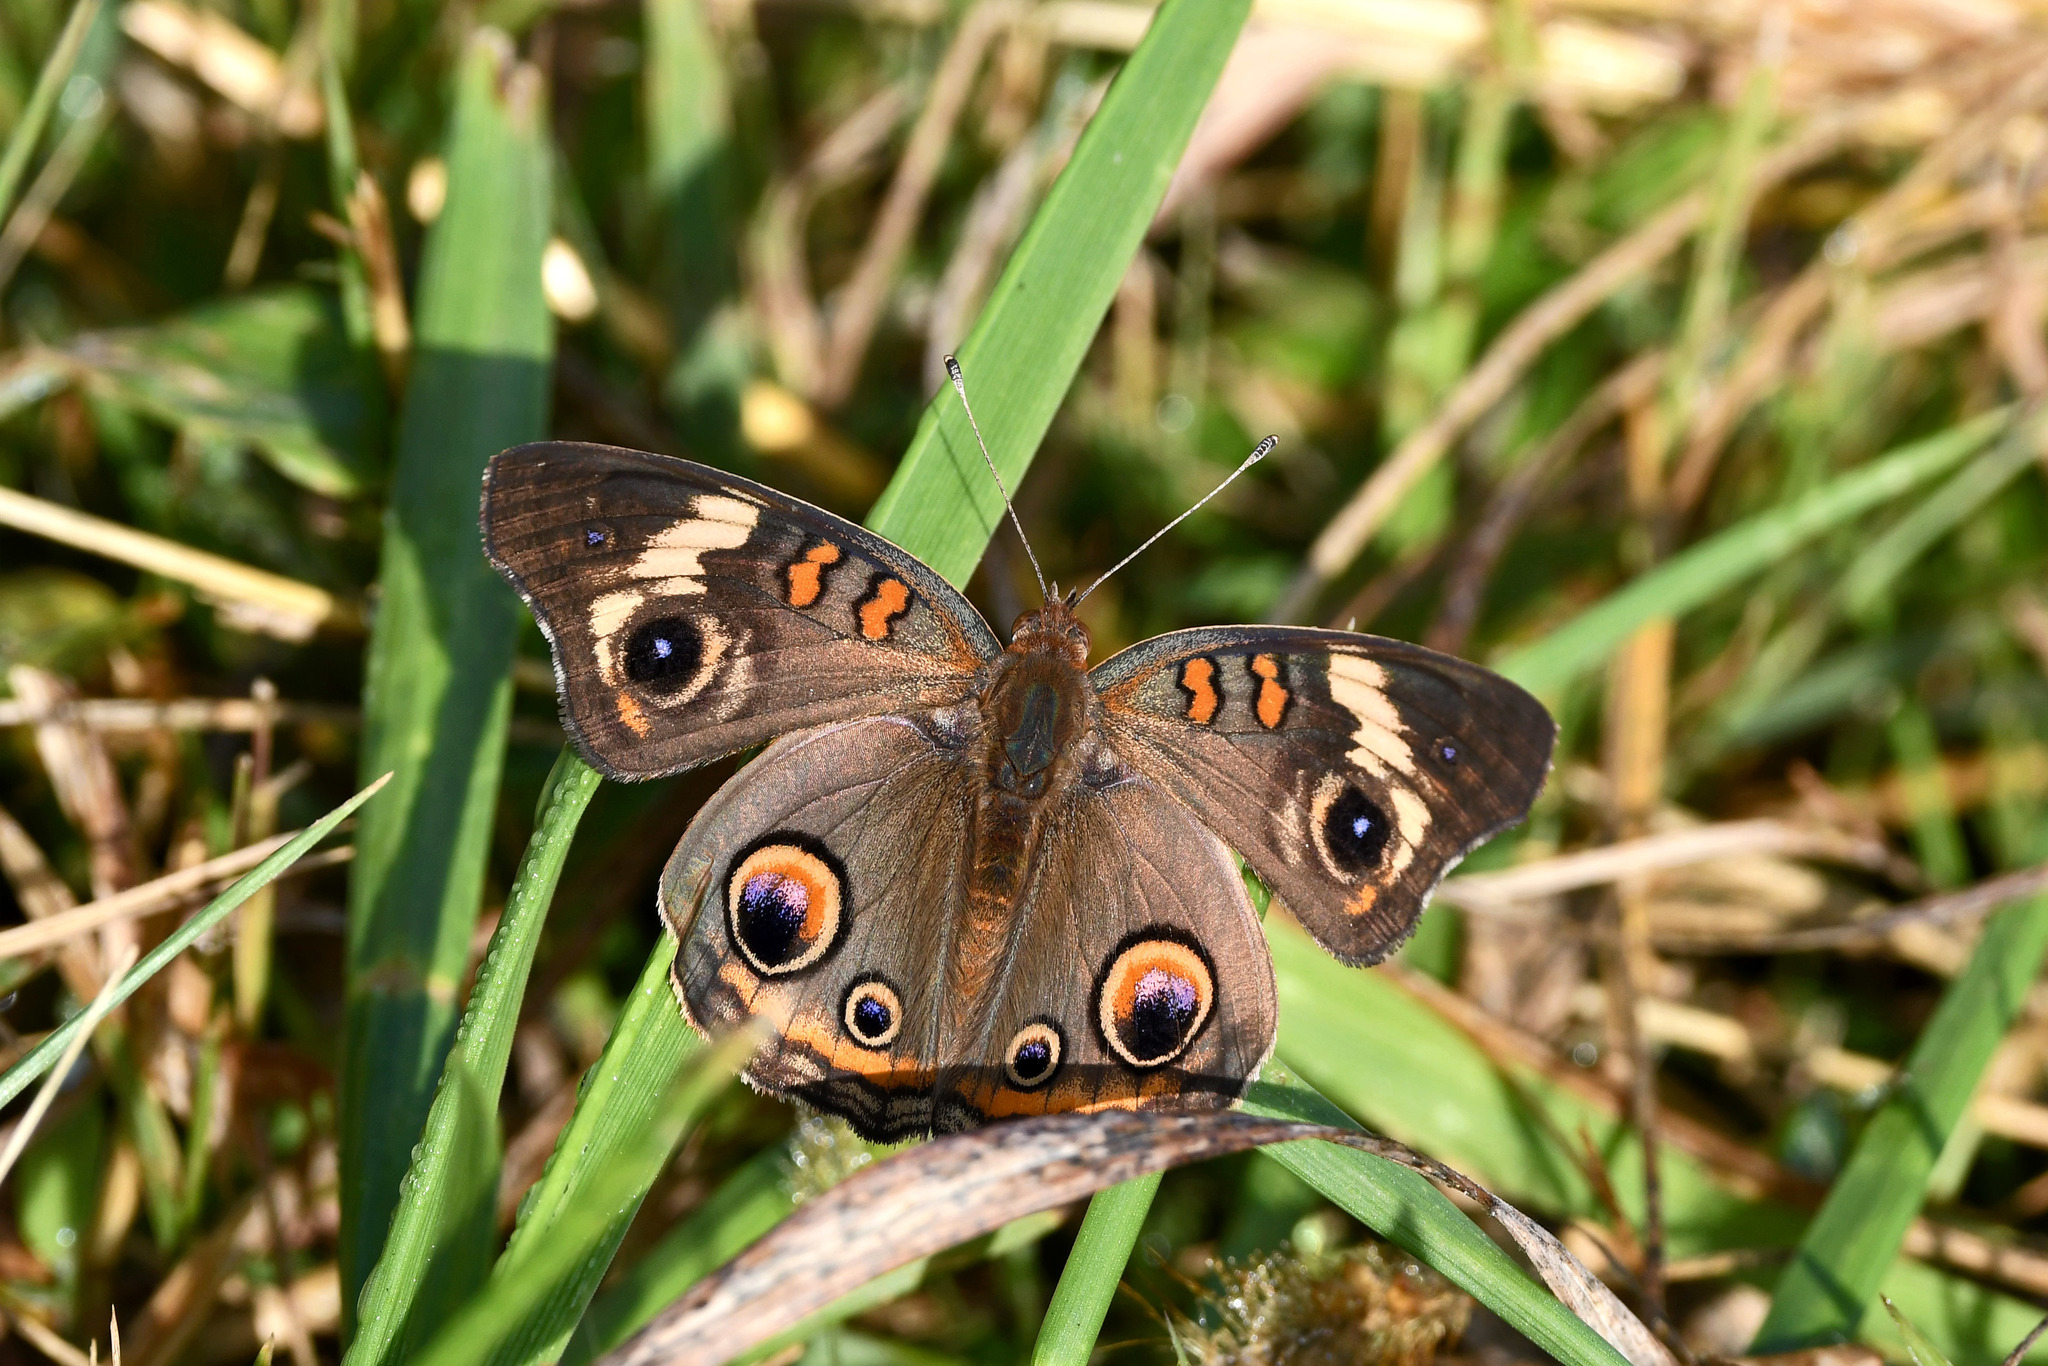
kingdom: Animalia
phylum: Arthropoda
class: Insecta
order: Lepidoptera
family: Nymphalidae
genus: Junonia
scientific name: Junonia coenia
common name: Common buckeye
